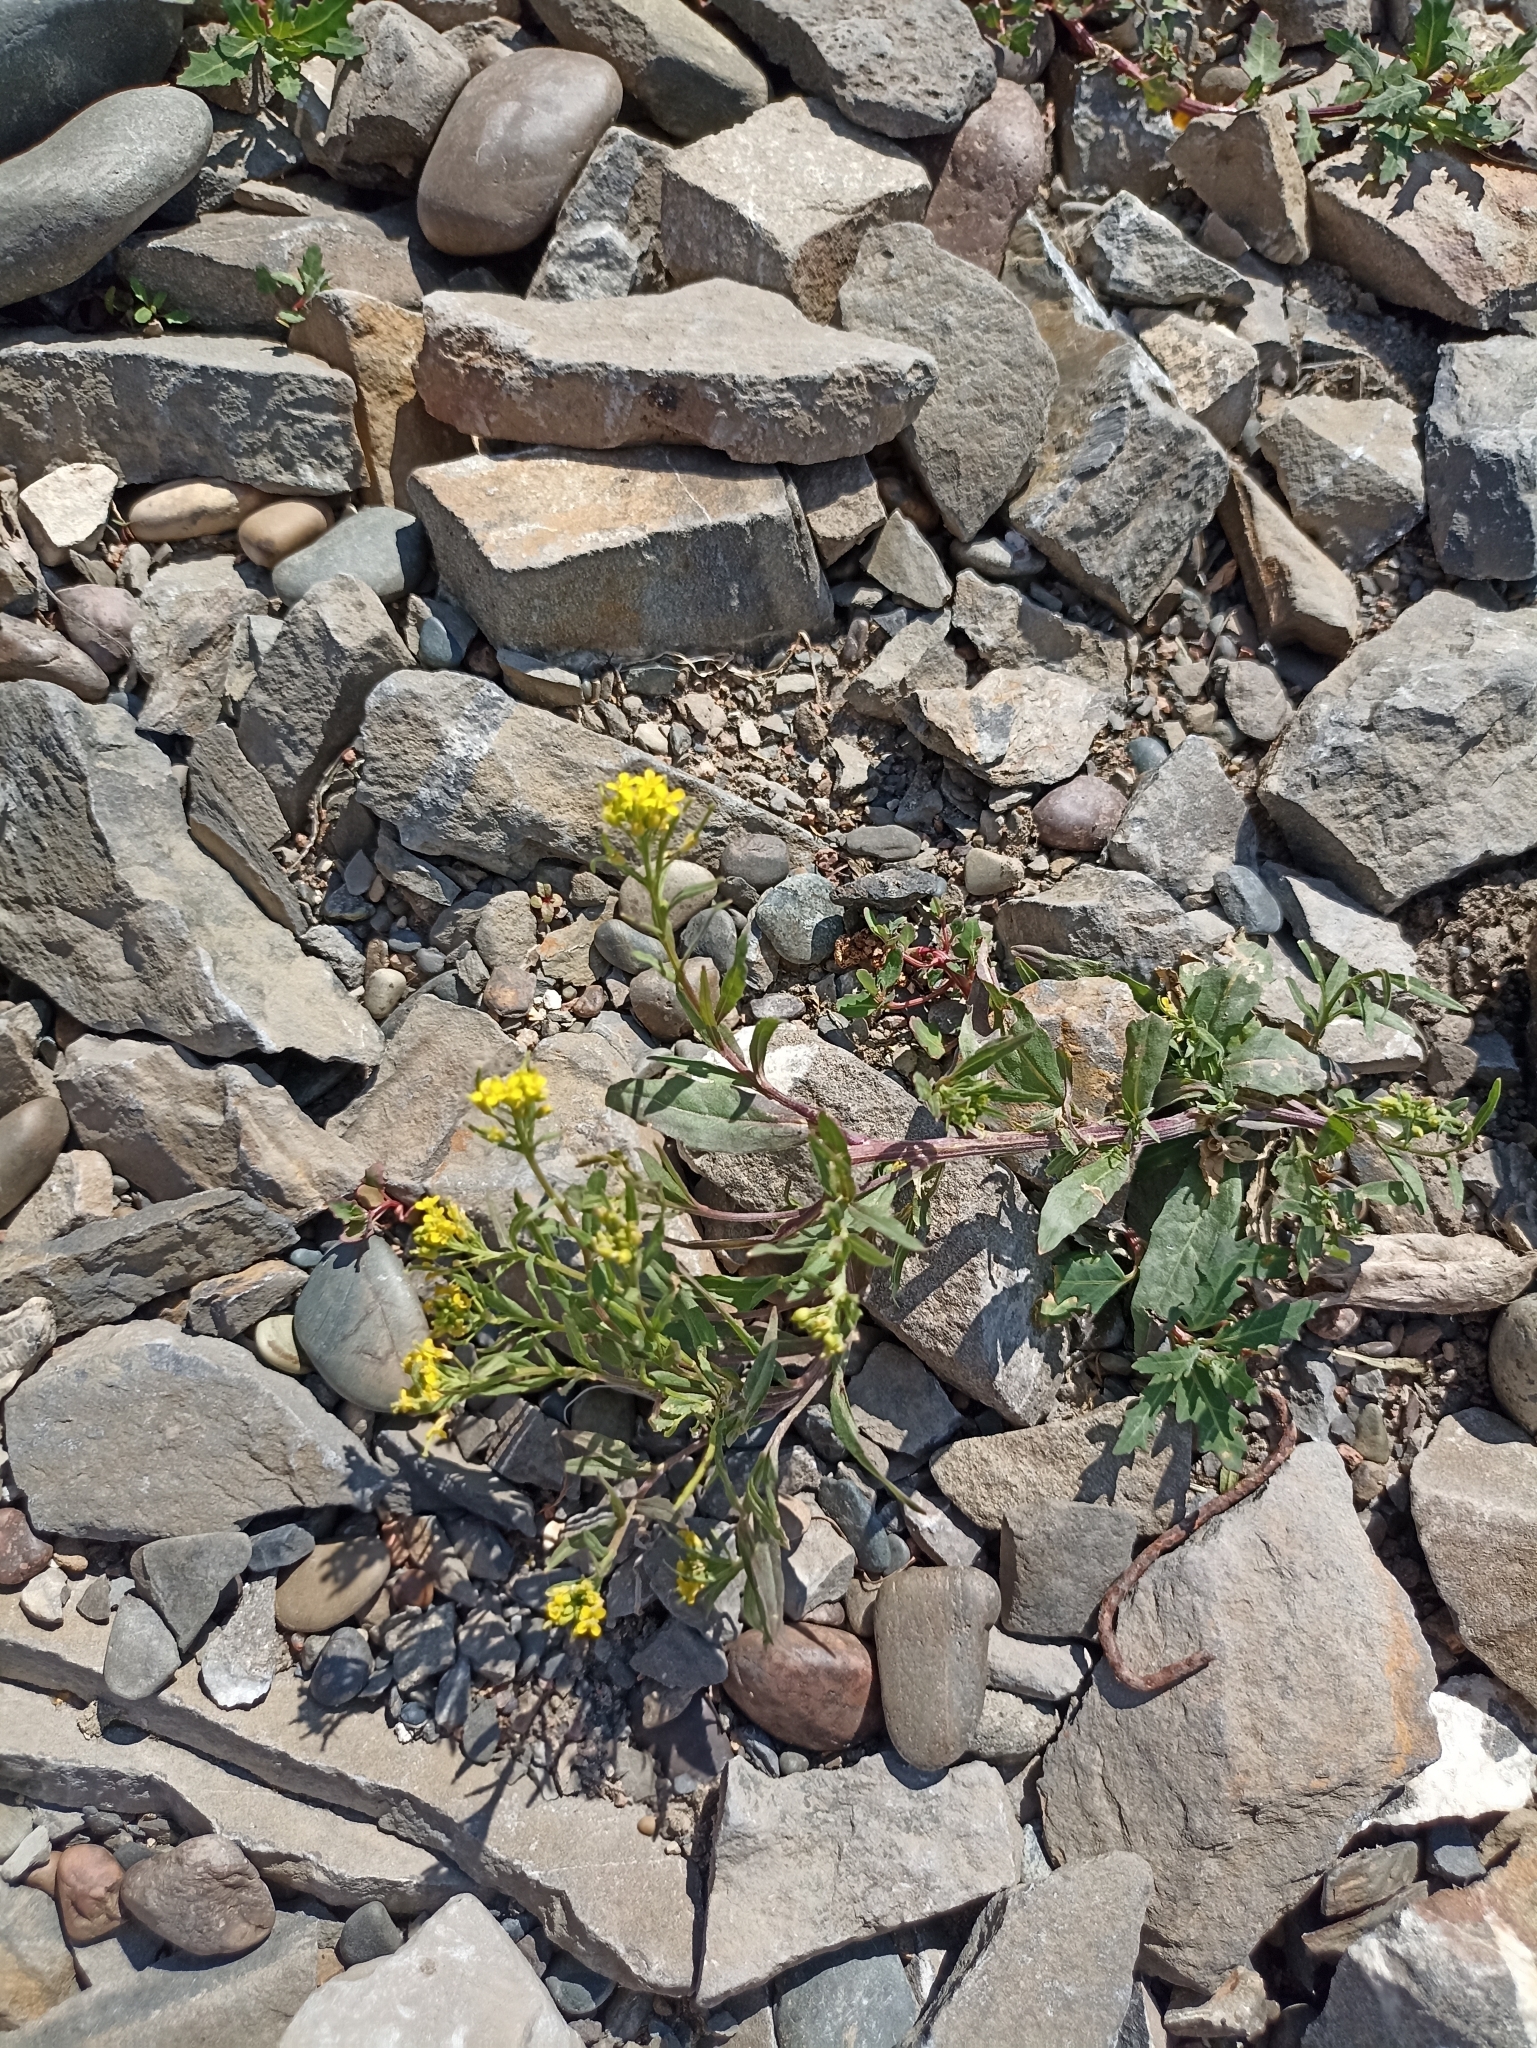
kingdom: Plantae
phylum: Tracheophyta
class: Magnoliopsida
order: Brassicales
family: Brassicaceae
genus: Erysimum
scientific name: Erysimum cheiranthoides
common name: Treacle mustard
